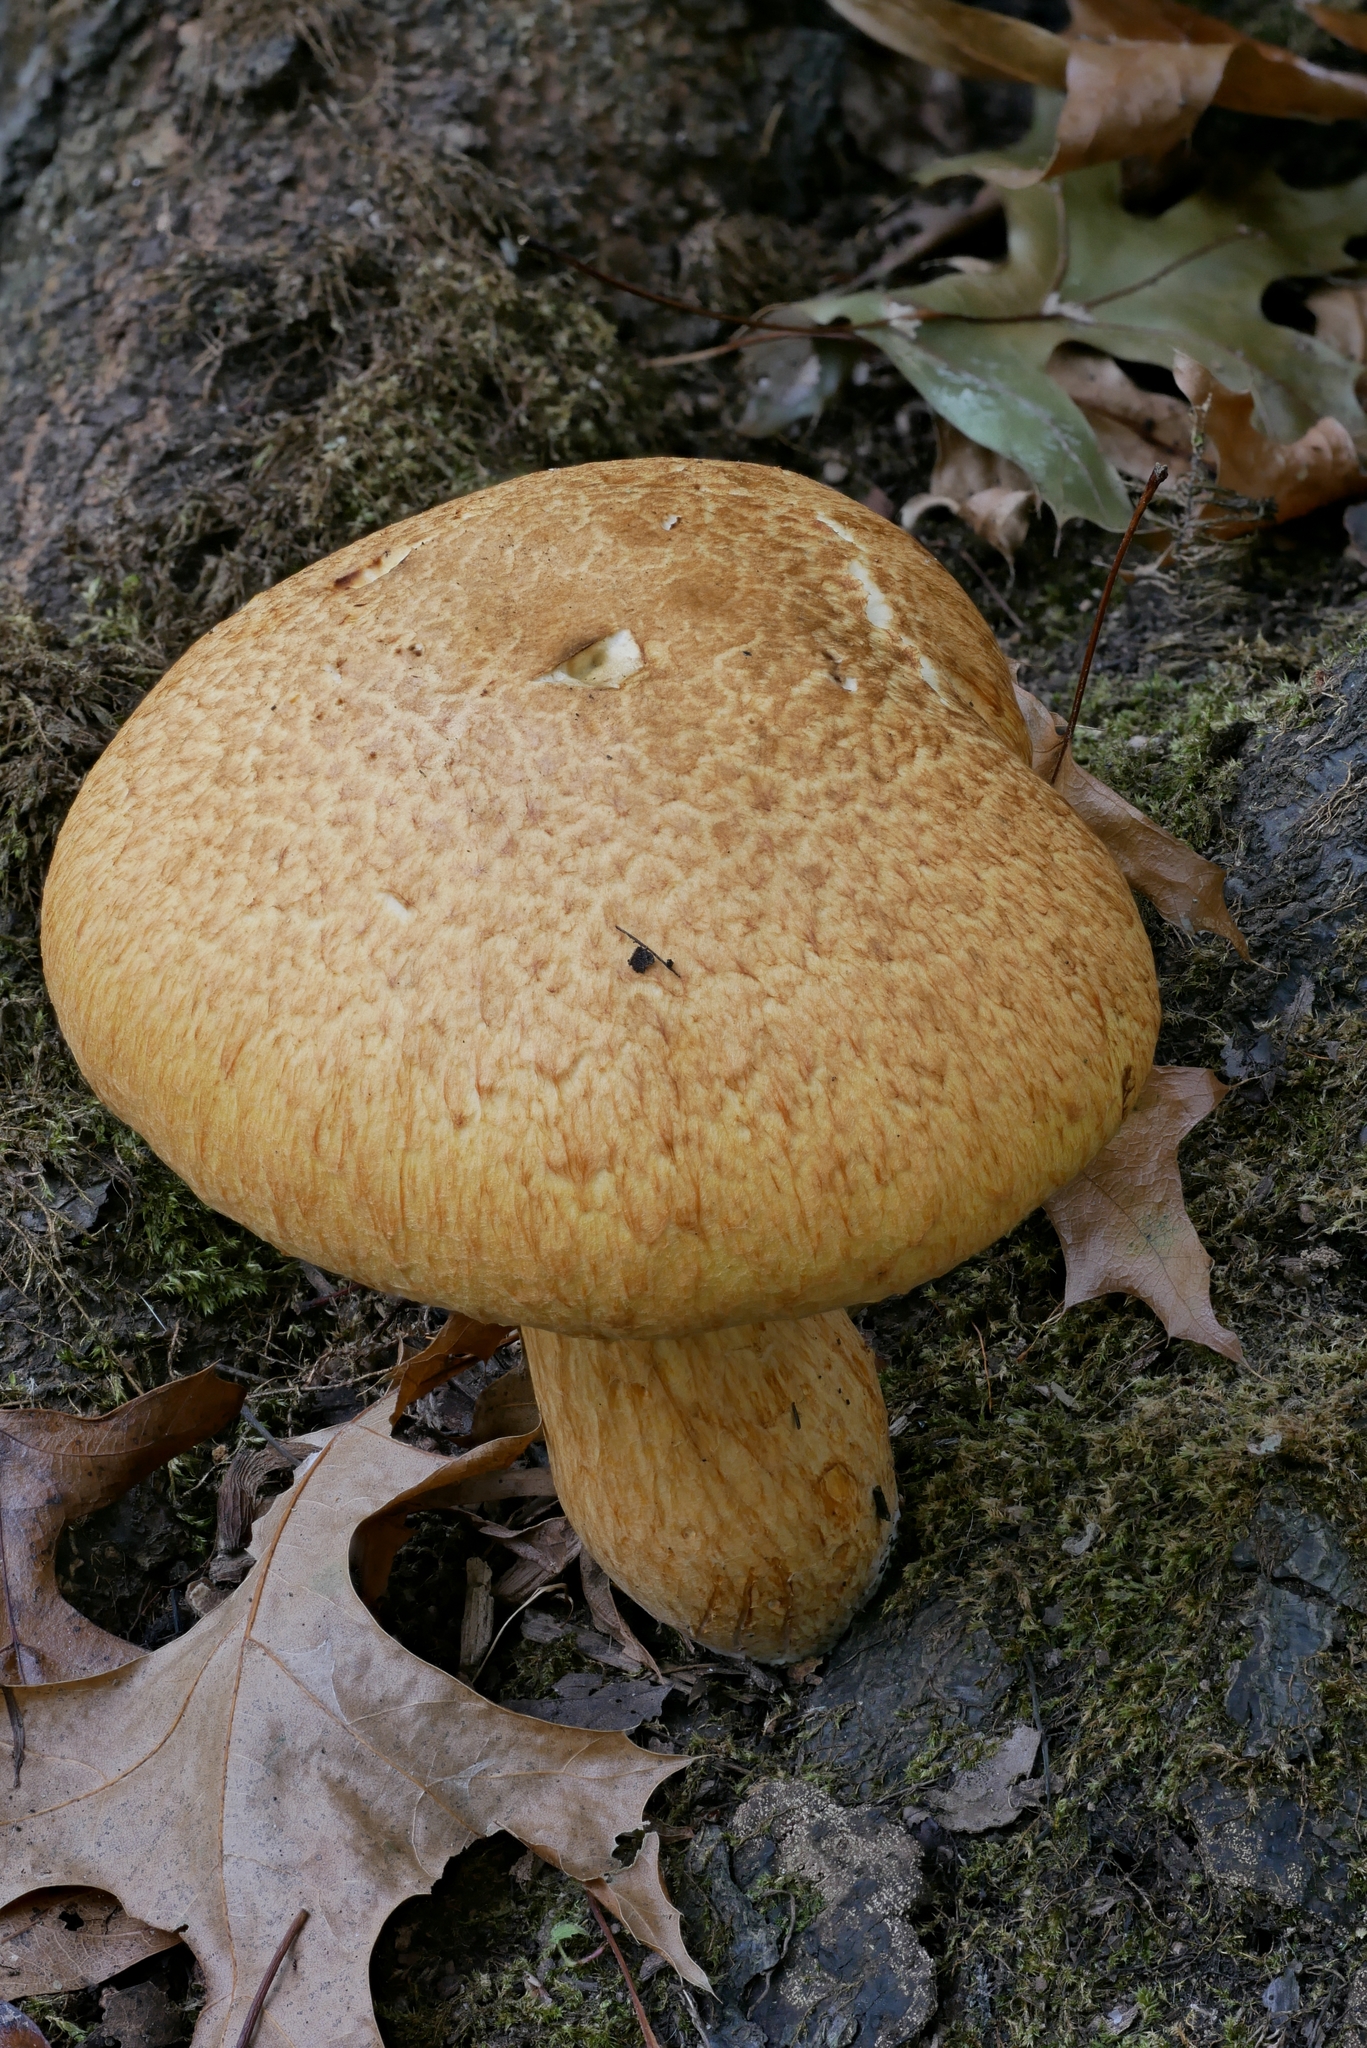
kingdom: Fungi
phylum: Basidiomycota
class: Agaricomycetes
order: Agaricales
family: Hymenogastraceae
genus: Gymnopilus
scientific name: Gymnopilus speciosissimus
